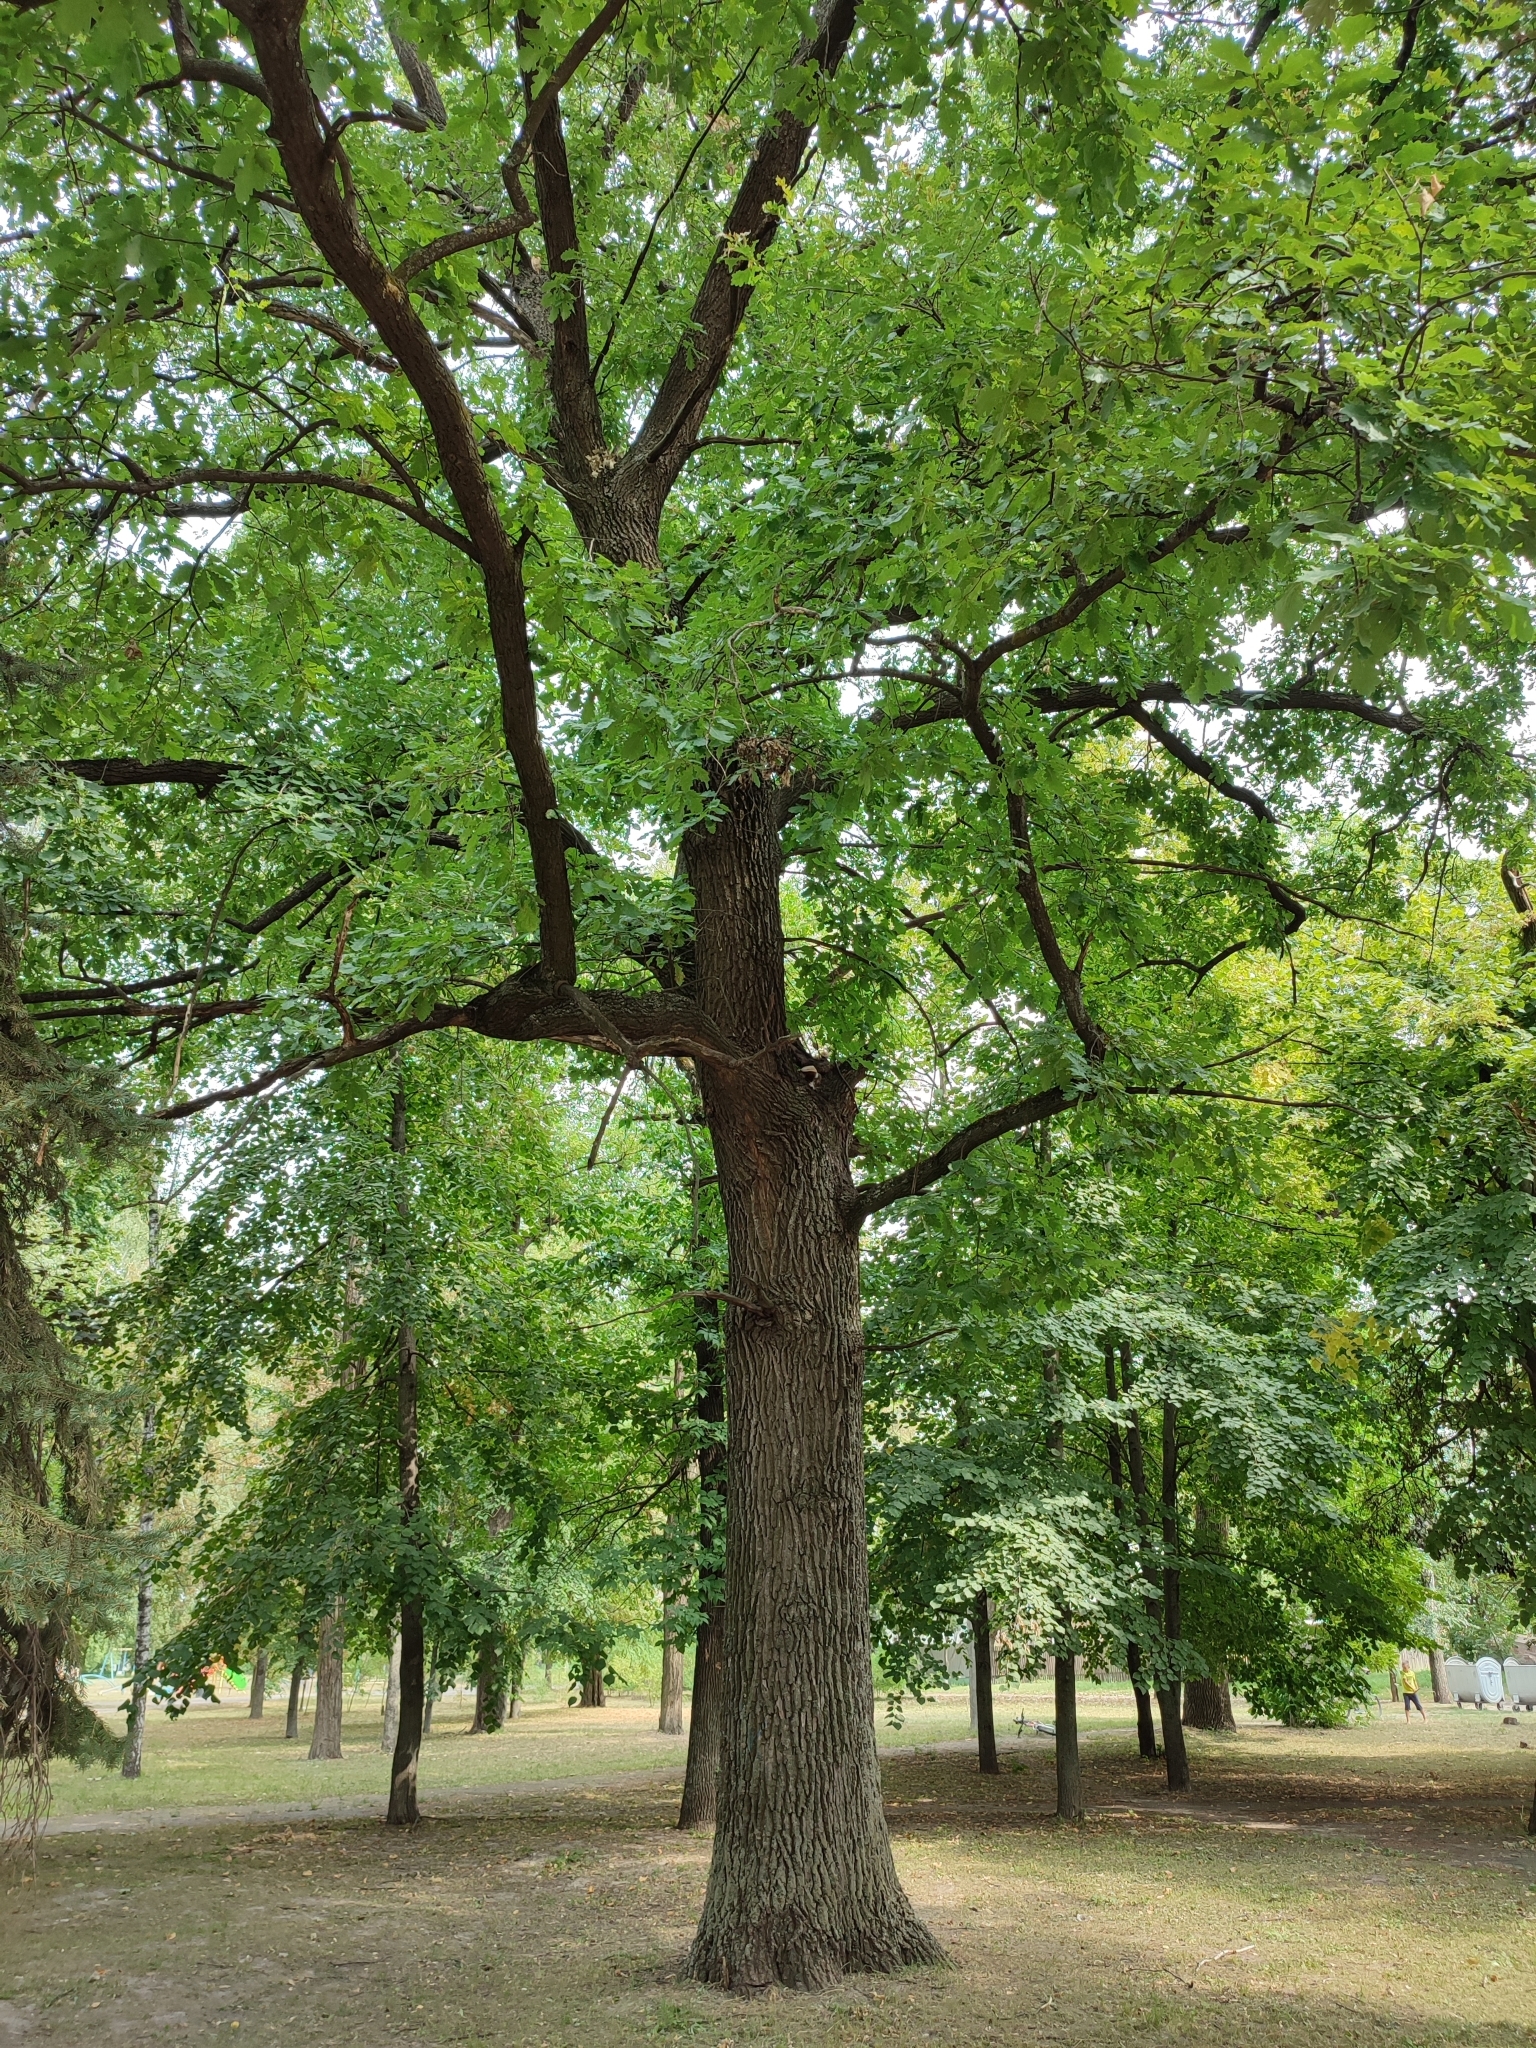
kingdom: Plantae
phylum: Tracheophyta
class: Magnoliopsida
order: Fagales
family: Fagaceae
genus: Quercus
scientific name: Quercus robur
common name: Pedunculate oak
